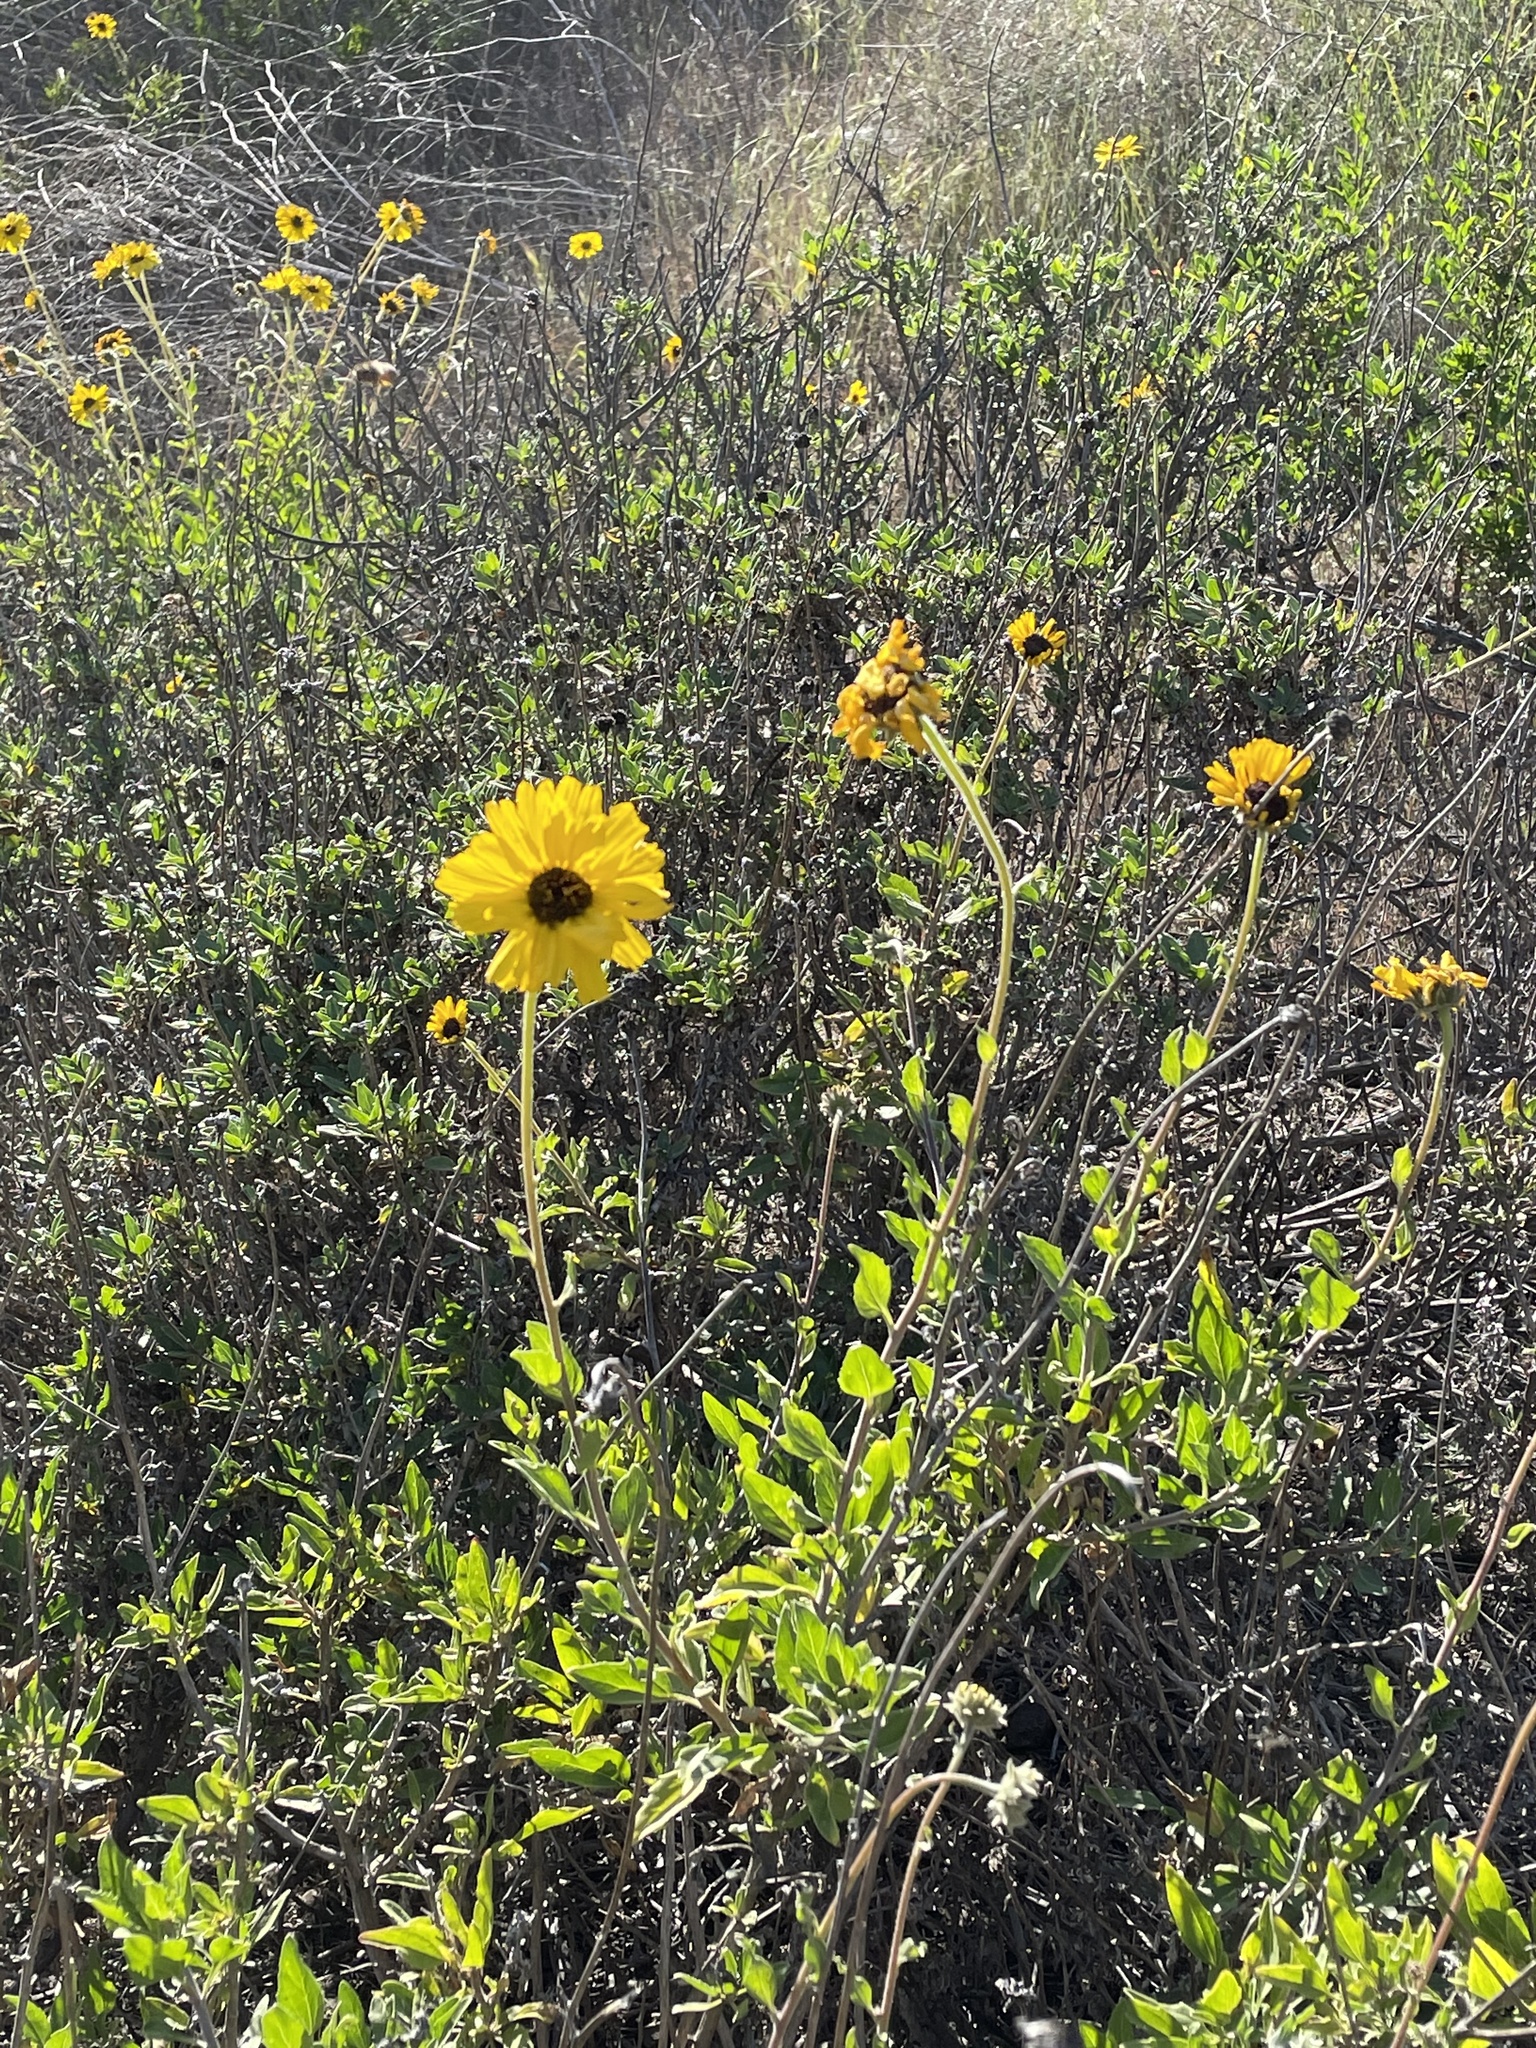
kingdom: Plantae
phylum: Tracheophyta
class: Magnoliopsida
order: Asterales
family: Asteraceae
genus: Encelia
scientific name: Encelia californica
